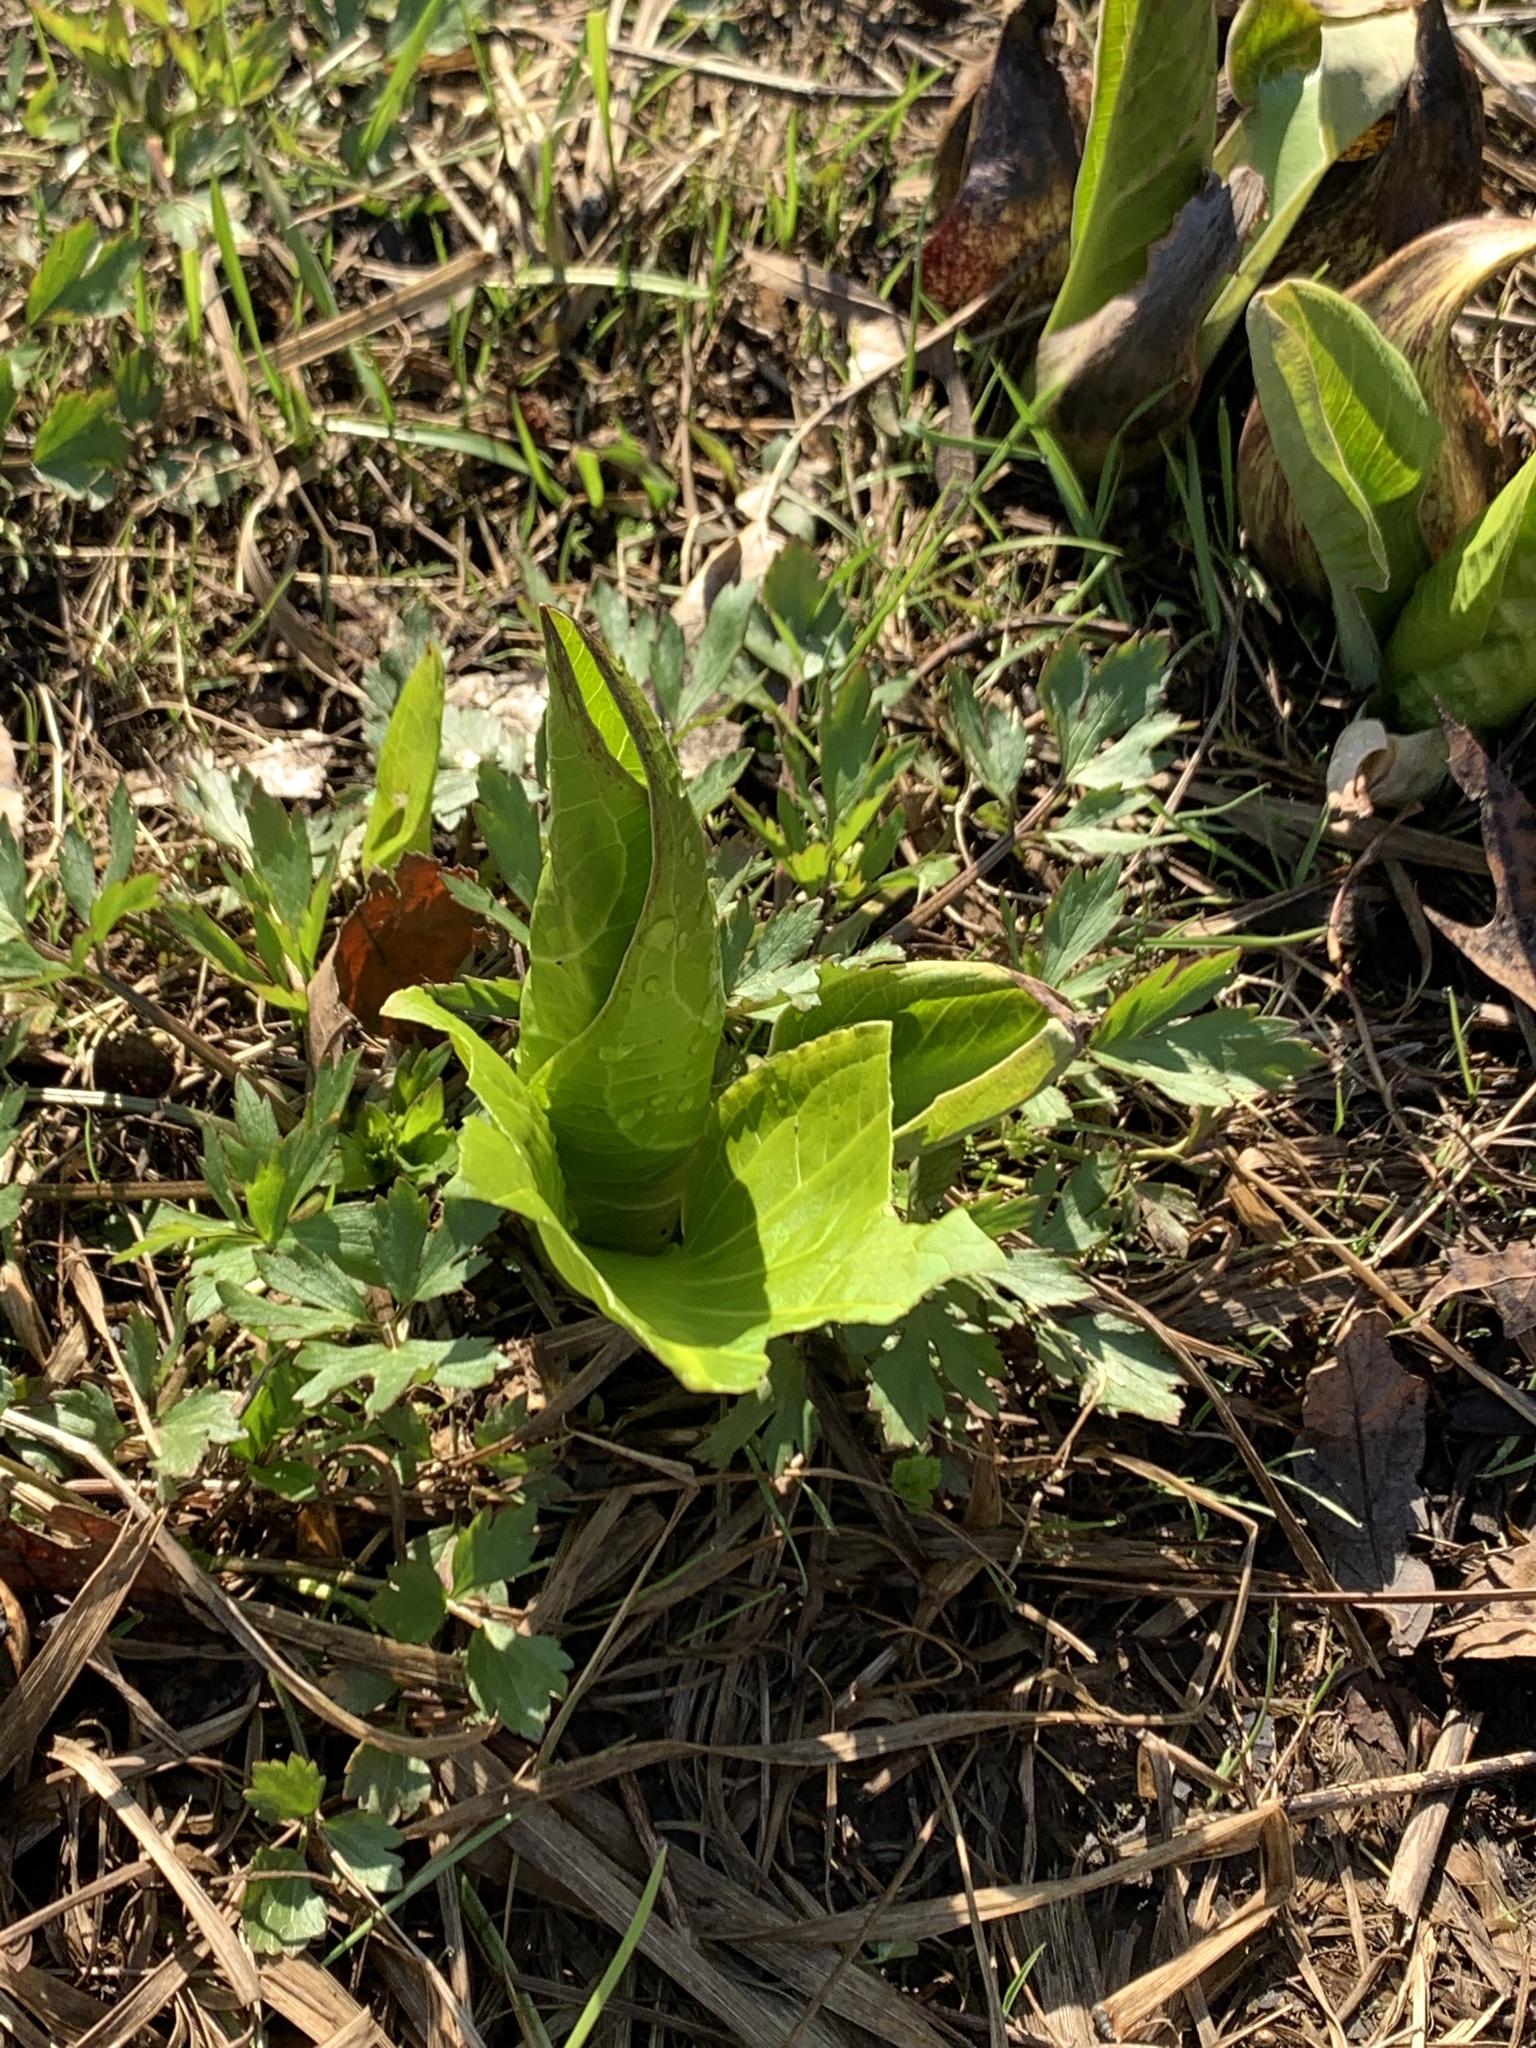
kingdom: Plantae
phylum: Tracheophyta
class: Liliopsida
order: Alismatales
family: Araceae
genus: Symplocarpus
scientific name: Symplocarpus foetidus
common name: Eastern skunk cabbage
